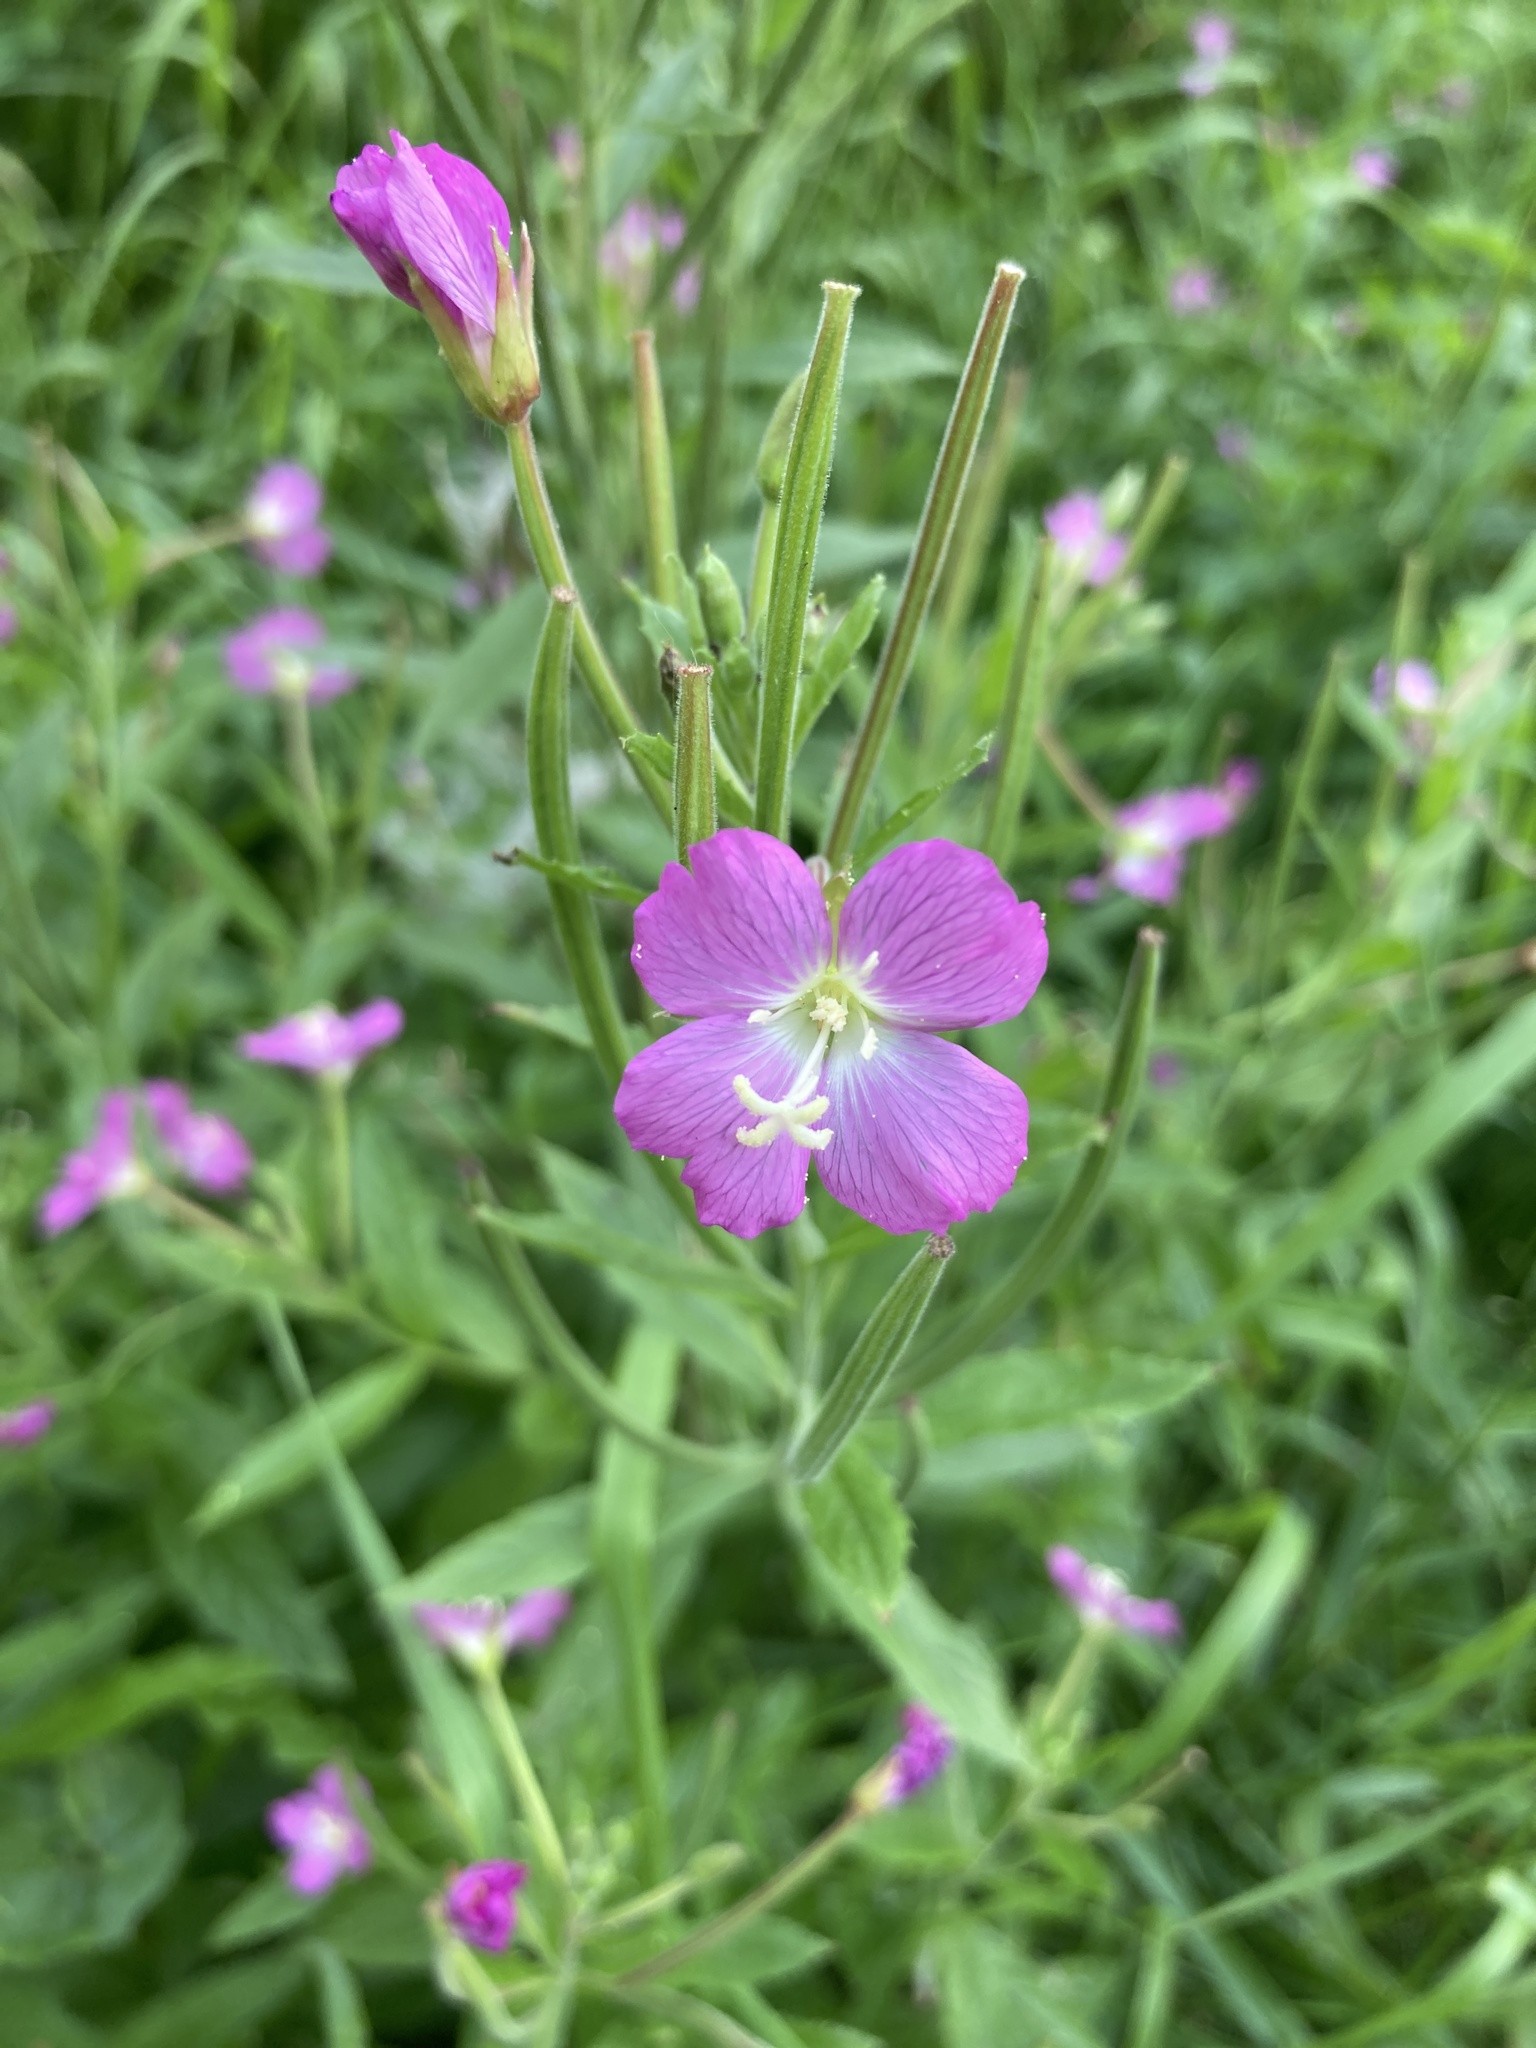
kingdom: Plantae
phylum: Tracheophyta
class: Magnoliopsida
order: Myrtales
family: Onagraceae
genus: Epilobium
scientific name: Epilobium hirsutum
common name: Great willowherb
